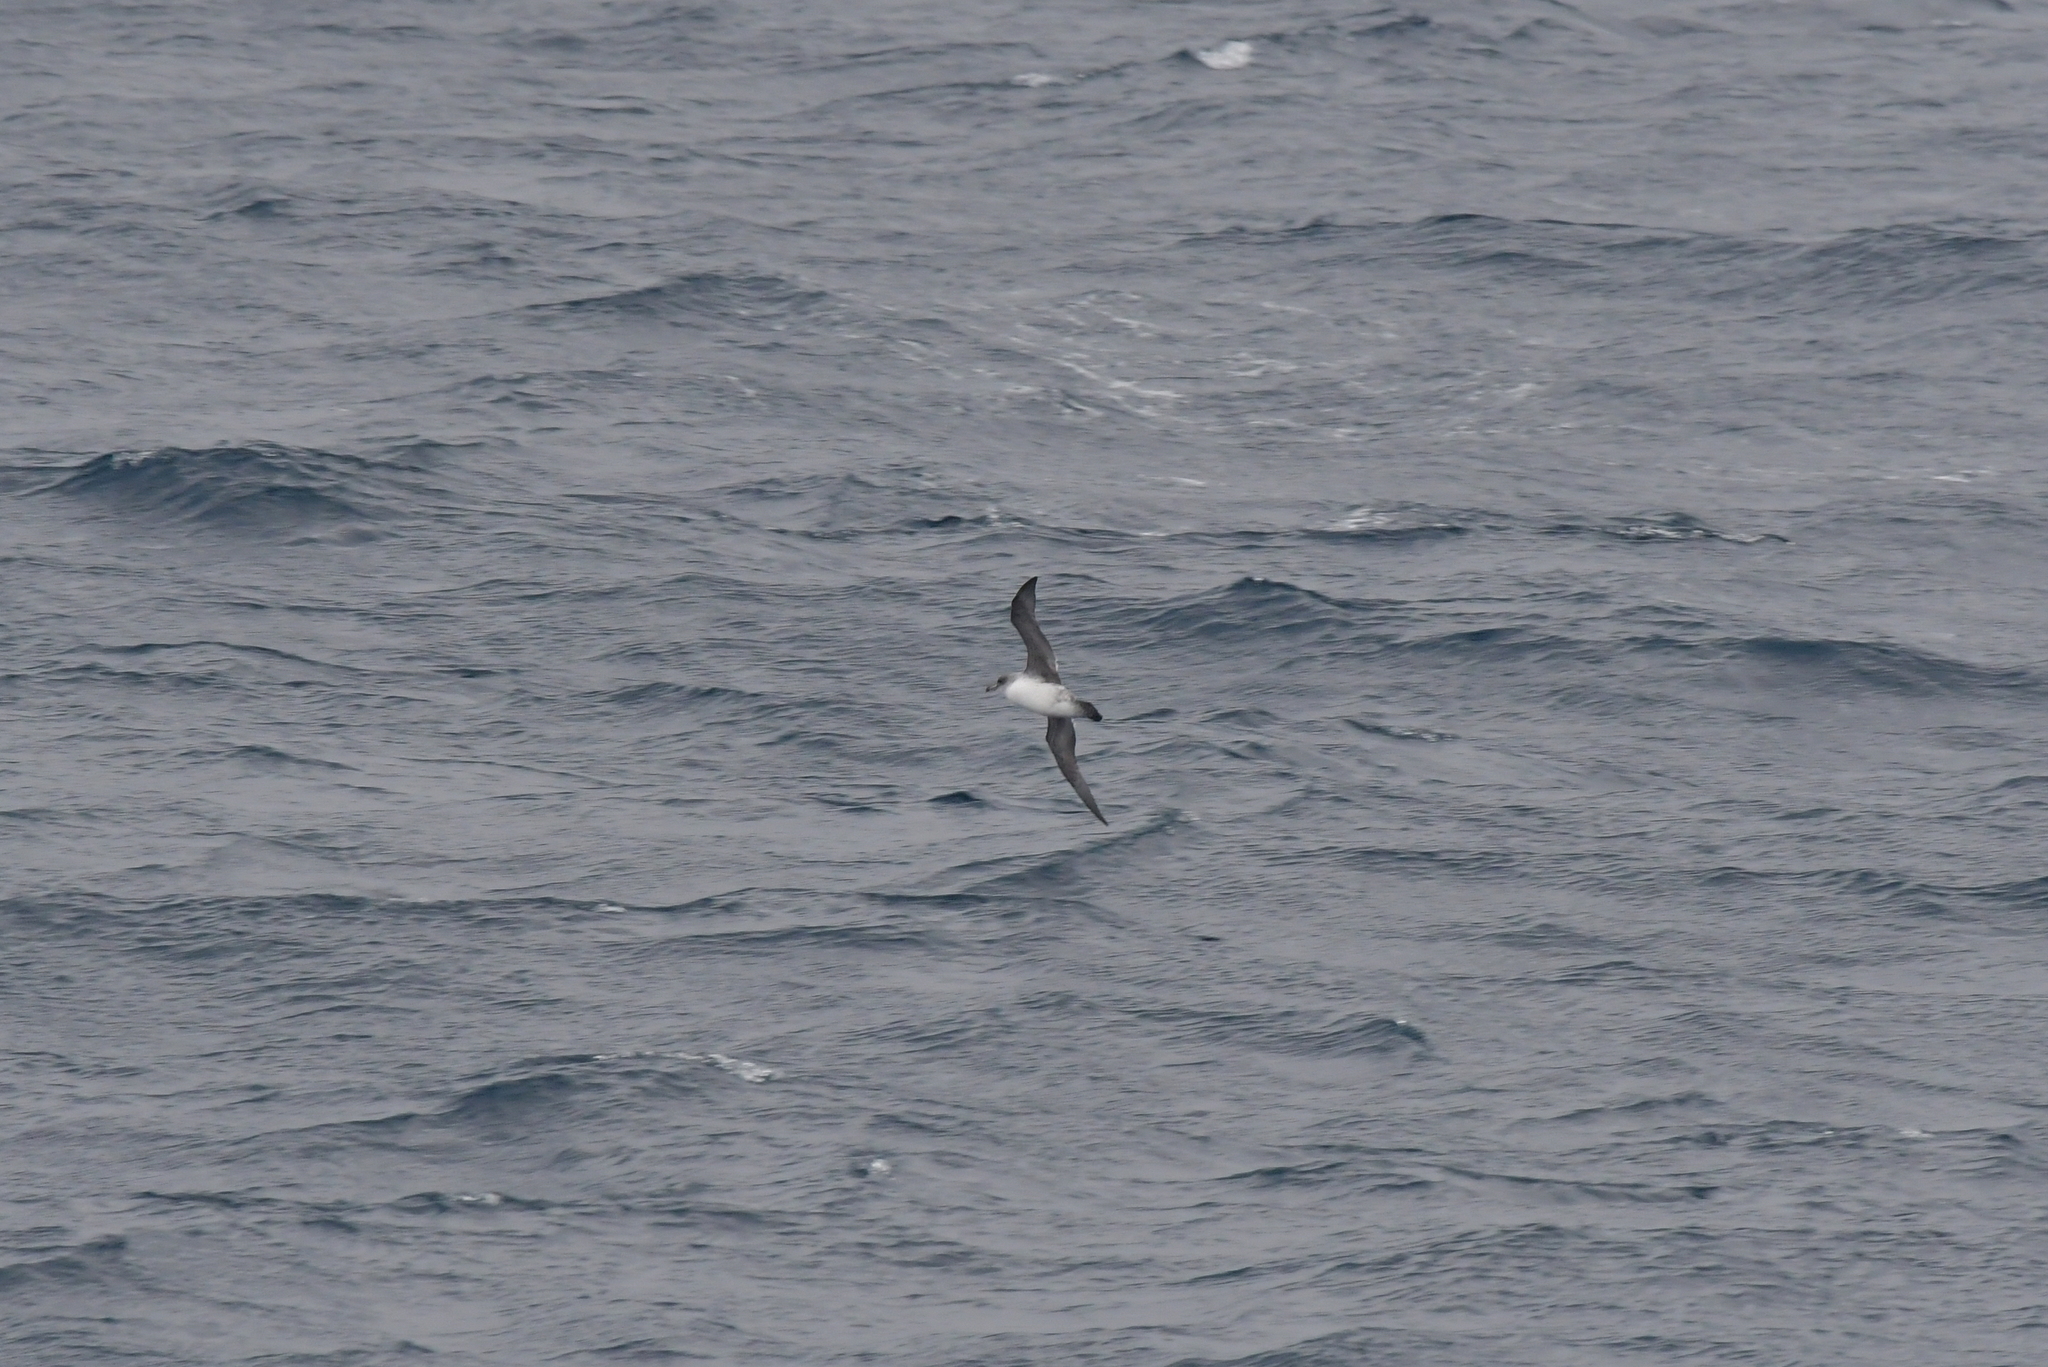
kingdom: Animalia
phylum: Chordata
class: Aves
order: Procellariiformes
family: Procellariidae
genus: Procellaria
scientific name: Procellaria cinerea
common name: Grey petrel
